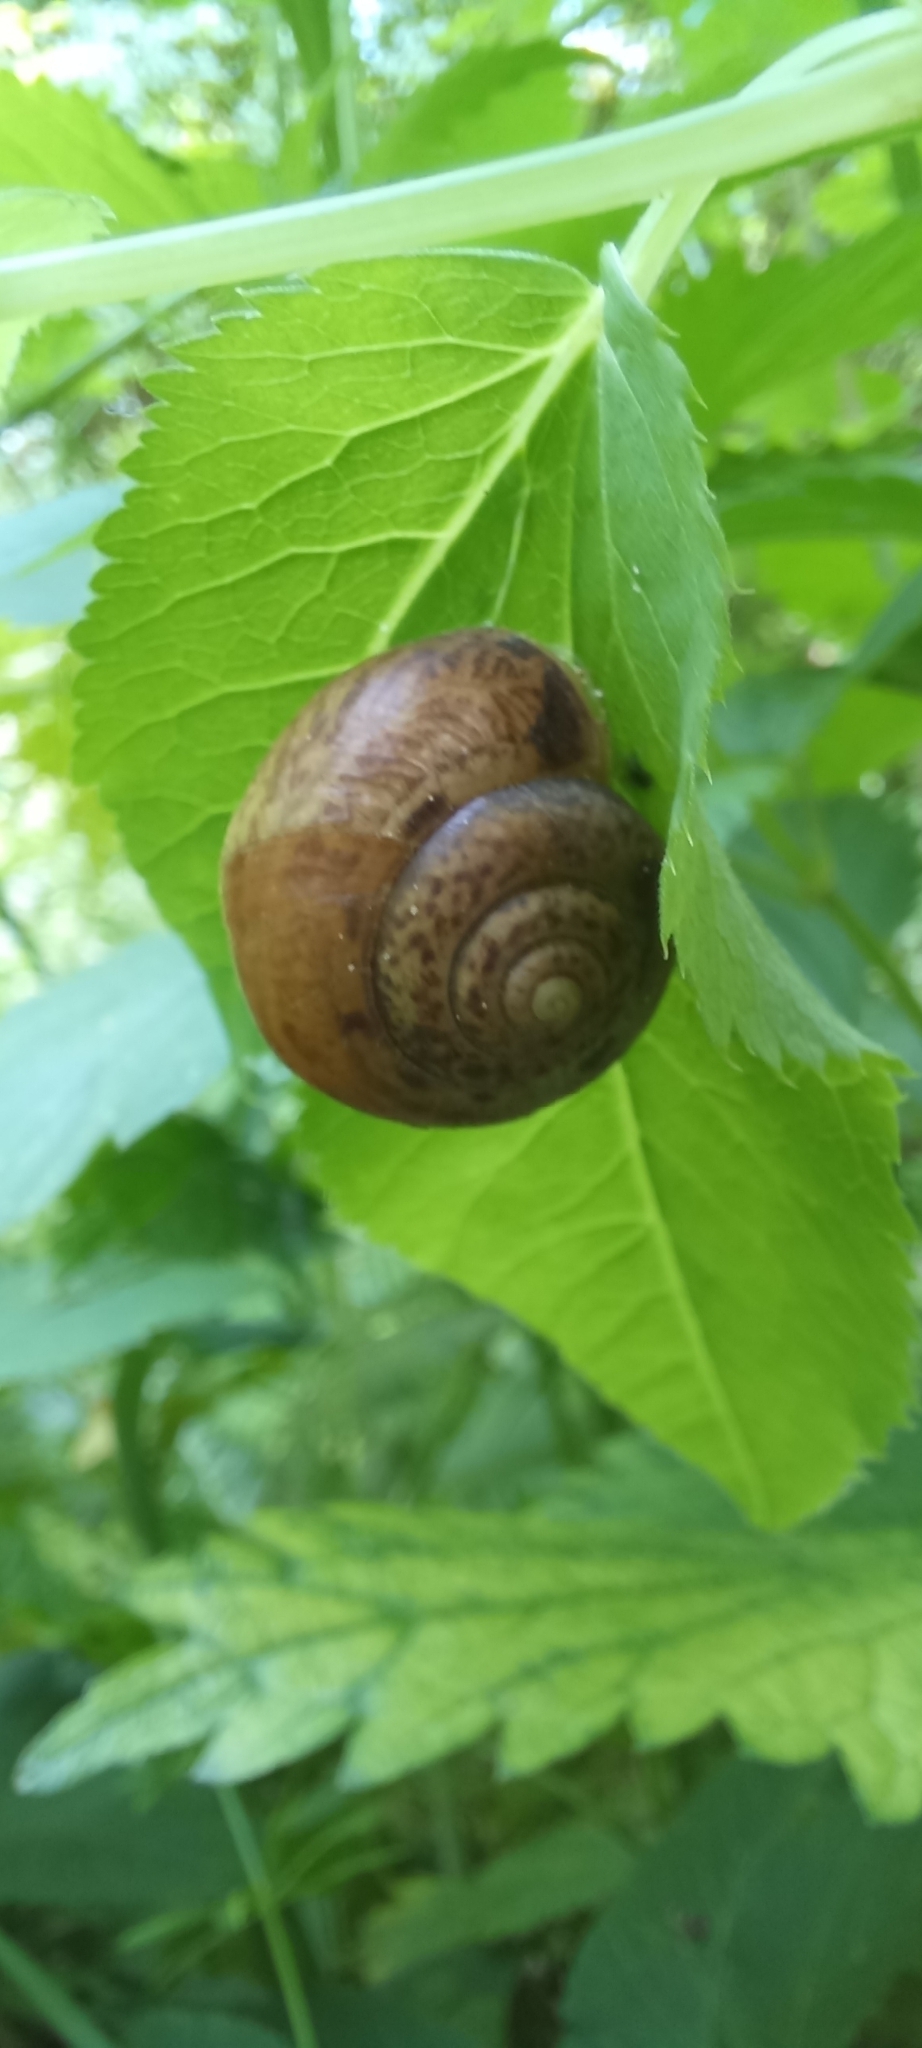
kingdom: Animalia
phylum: Mollusca
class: Gastropoda
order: Stylommatophora
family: Camaenidae
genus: Fruticicola
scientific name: Fruticicola fruticum
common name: Bush snail
